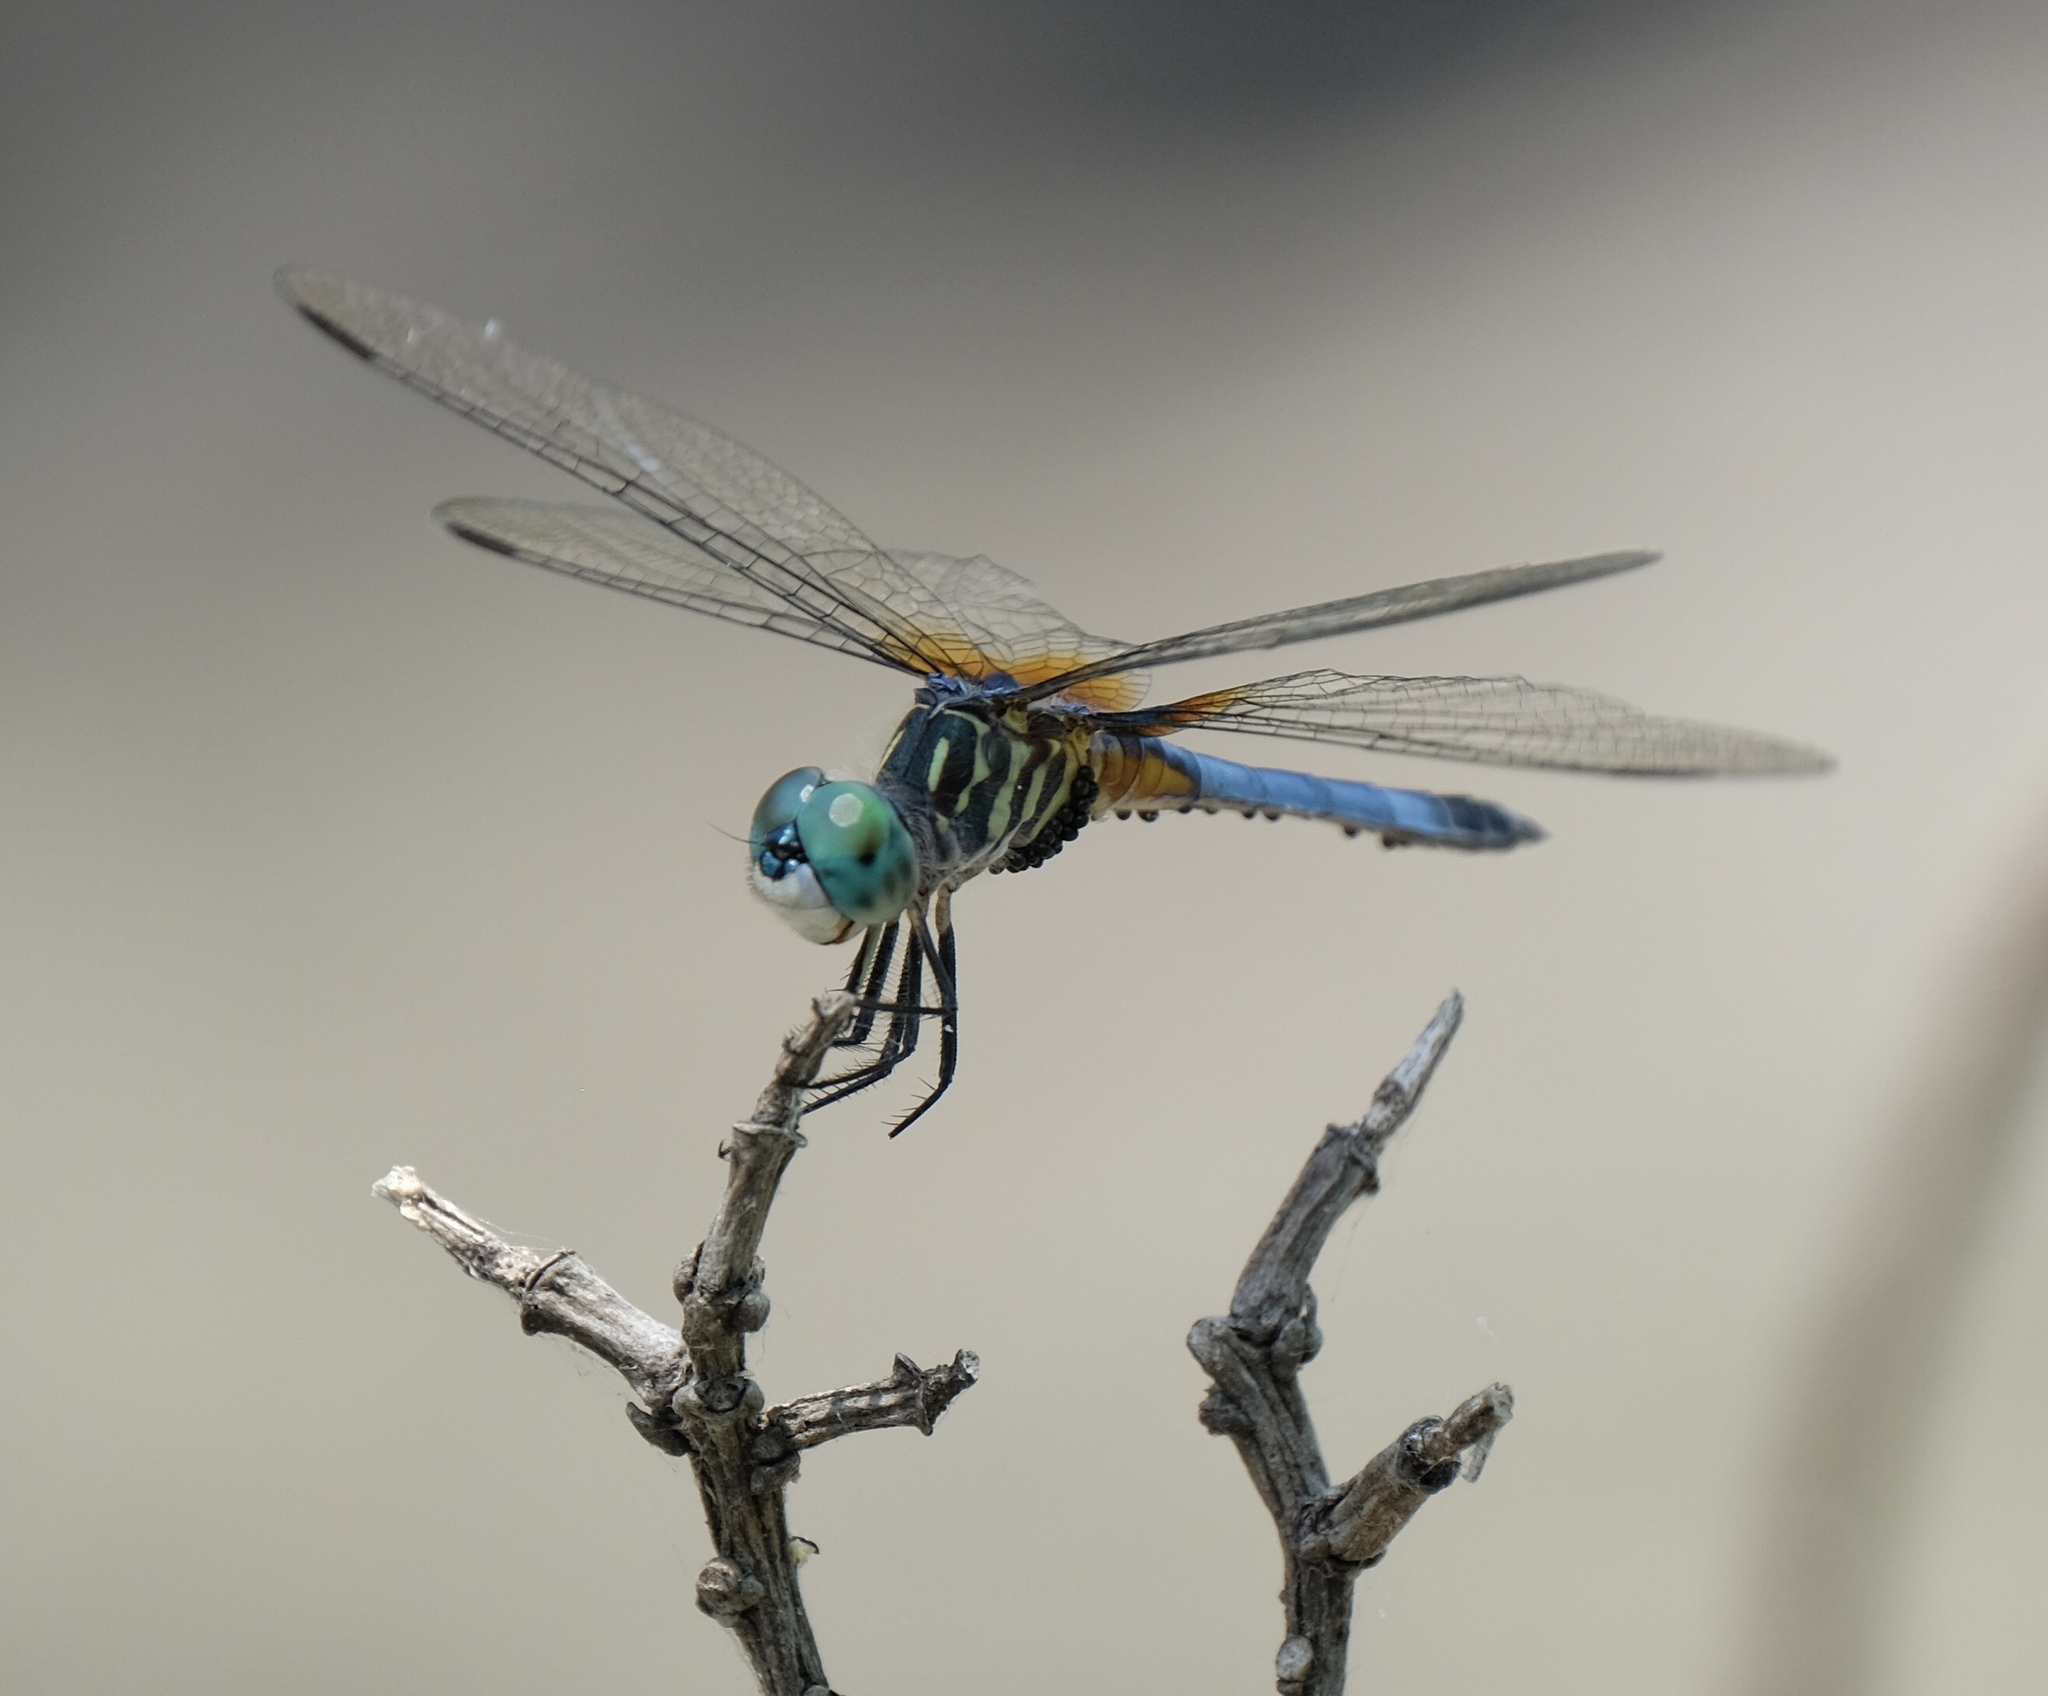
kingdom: Animalia
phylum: Arthropoda
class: Insecta
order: Odonata
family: Libellulidae
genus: Pachydiplax
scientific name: Pachydiplax longipennis
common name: Blue dasher
